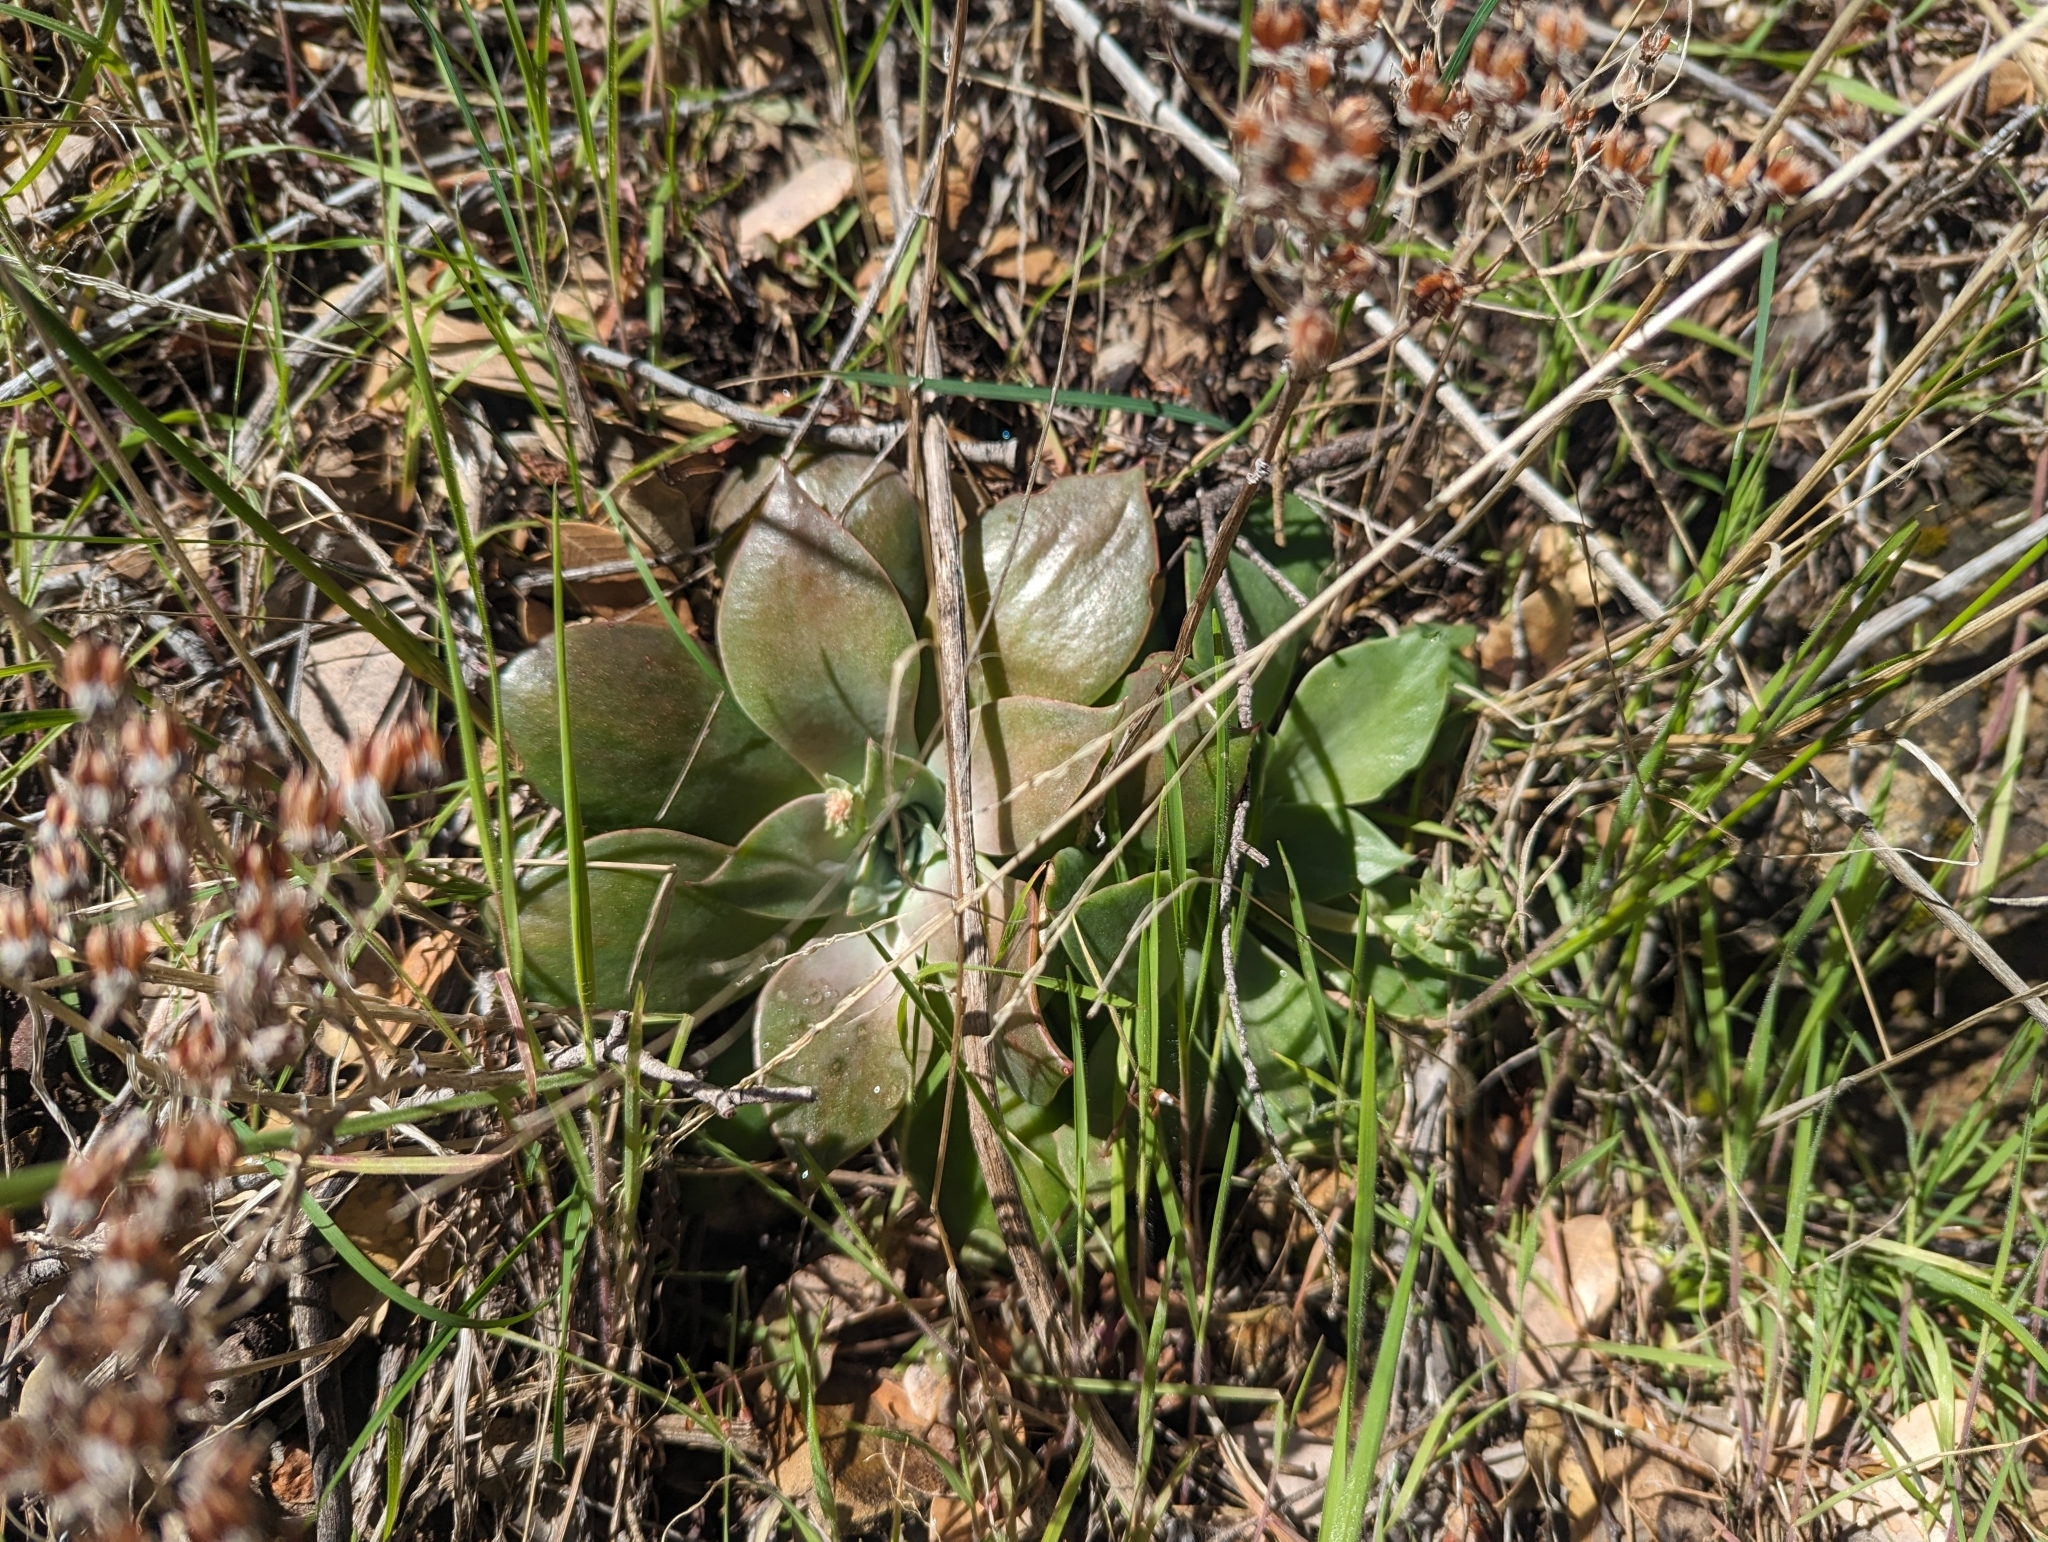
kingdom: Plantae
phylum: Tracheophyta
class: Magnoliopsida
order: Saxifragales
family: Crassulaceae
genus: Dudleya
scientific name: Dudleya cymosa
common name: Canyon dudleya
